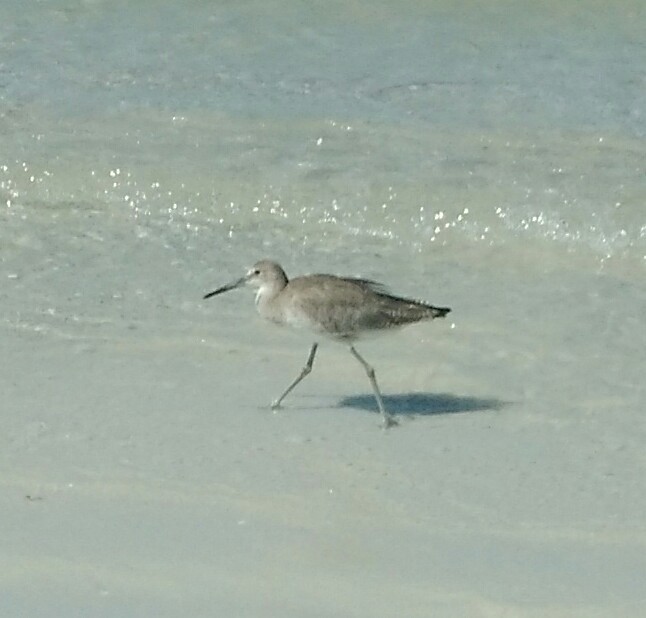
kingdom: Animalia
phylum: Chordata
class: Aves
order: Charadriiformes
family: Scolopacidae
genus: Tringa
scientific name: Tringa semipalmata
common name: Willet
